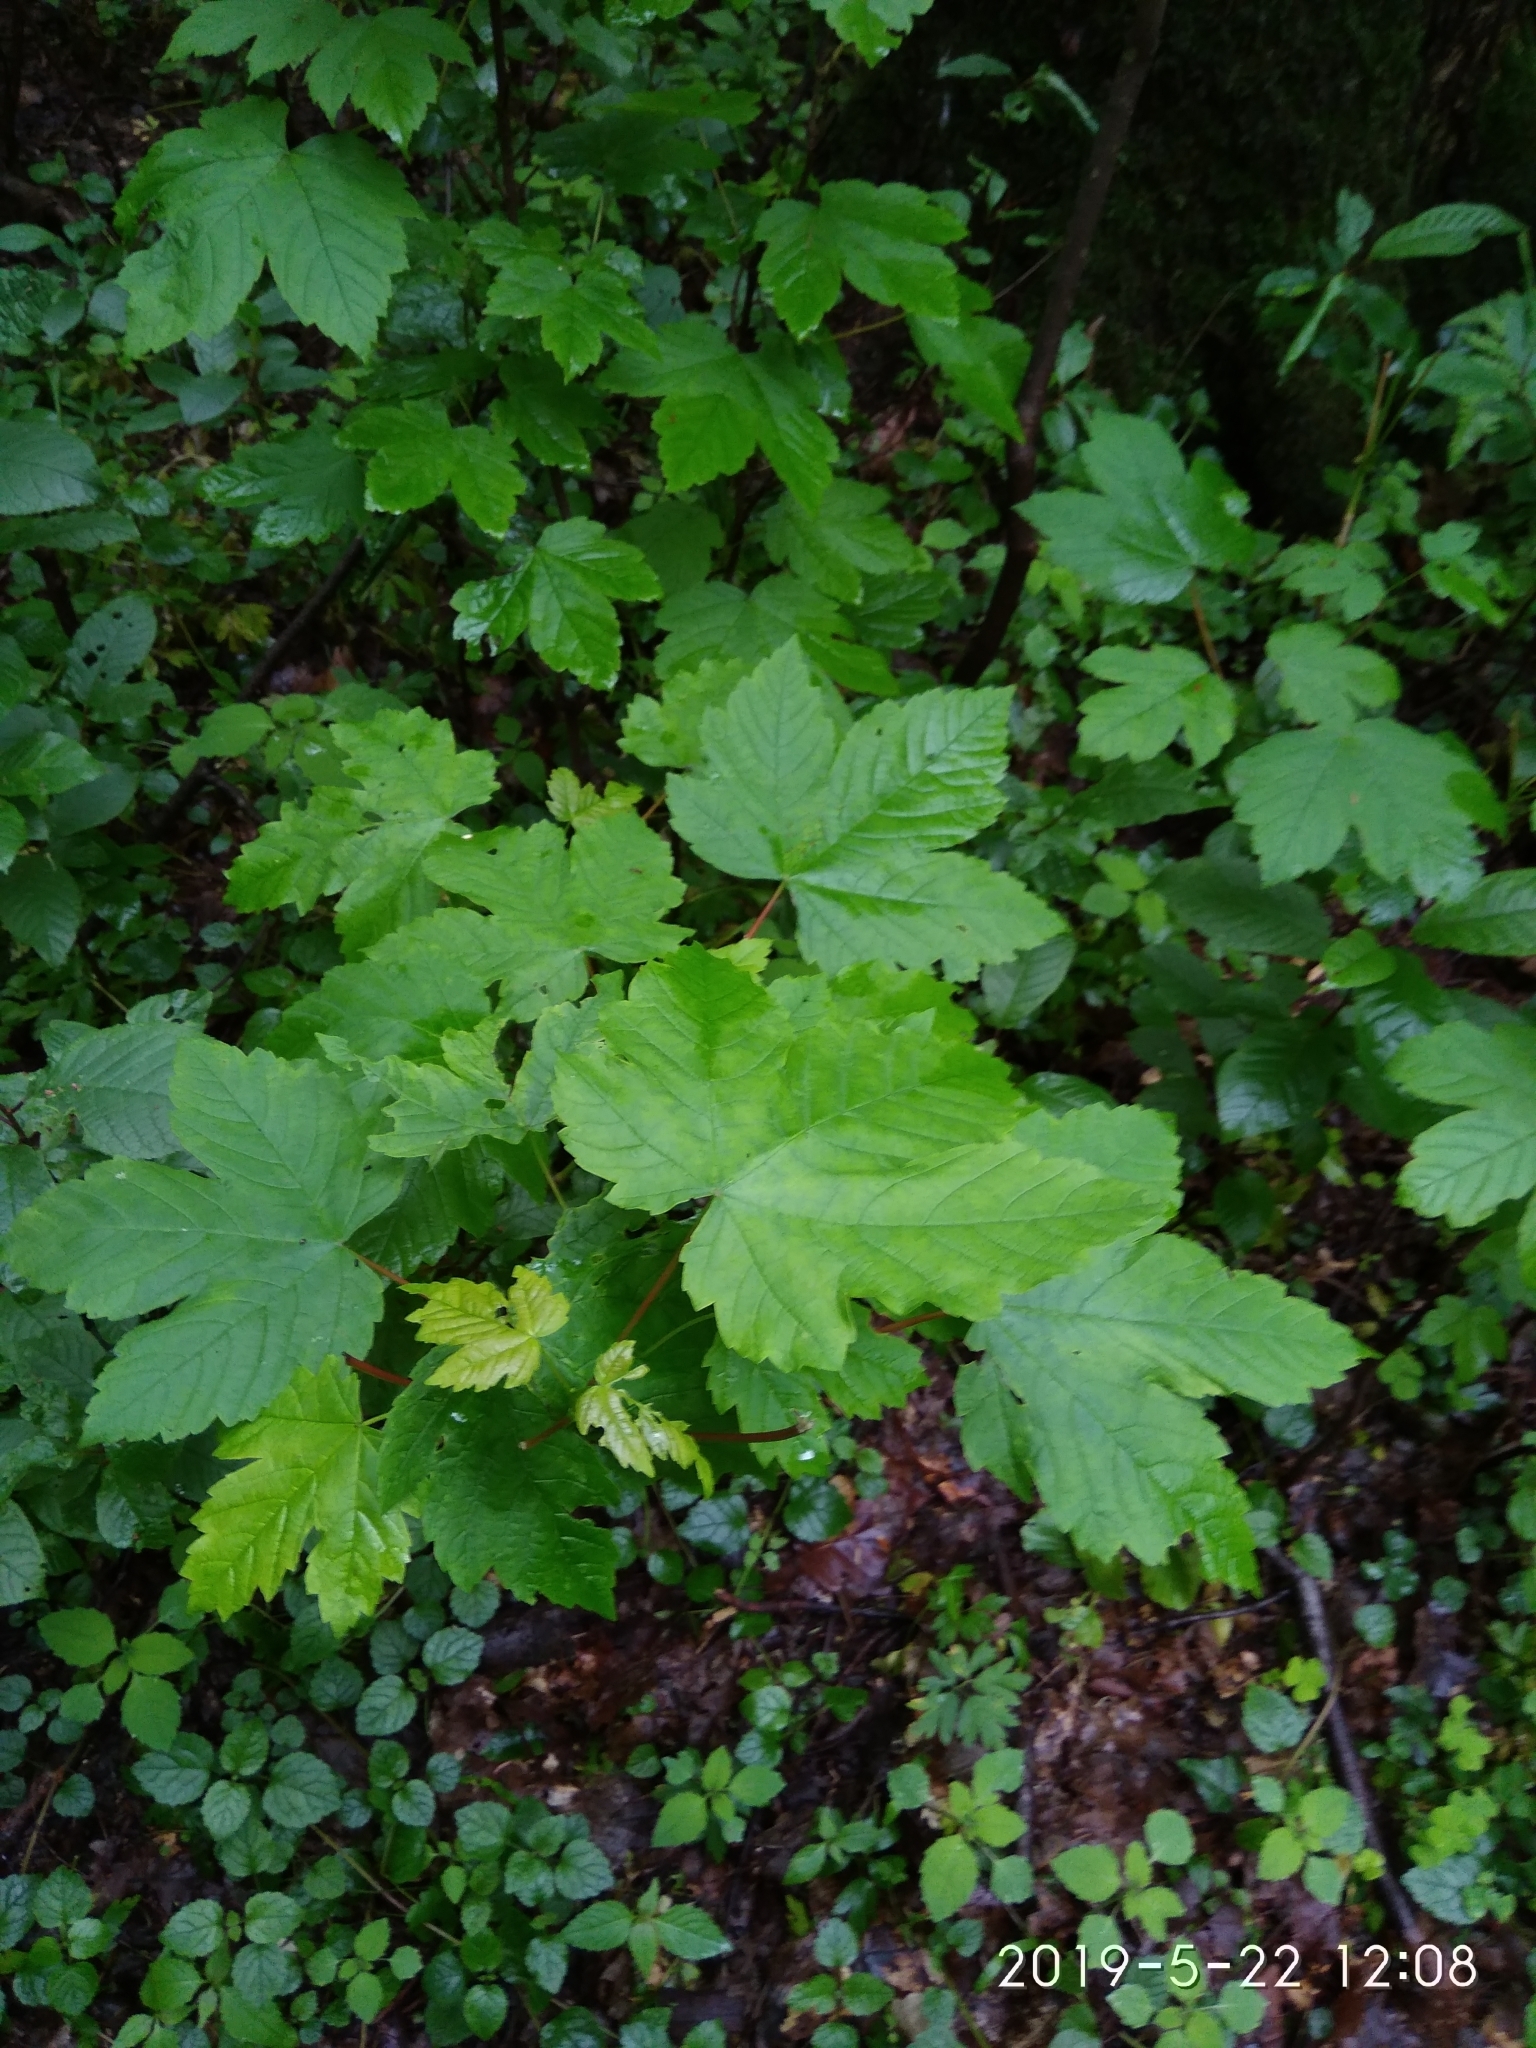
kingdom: Plantae
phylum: Tracheophyta
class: Magnoliopsida
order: Sapindales
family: Sapindaceae
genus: Acer
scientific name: Acer pseudoplatanus
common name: Sycamore
